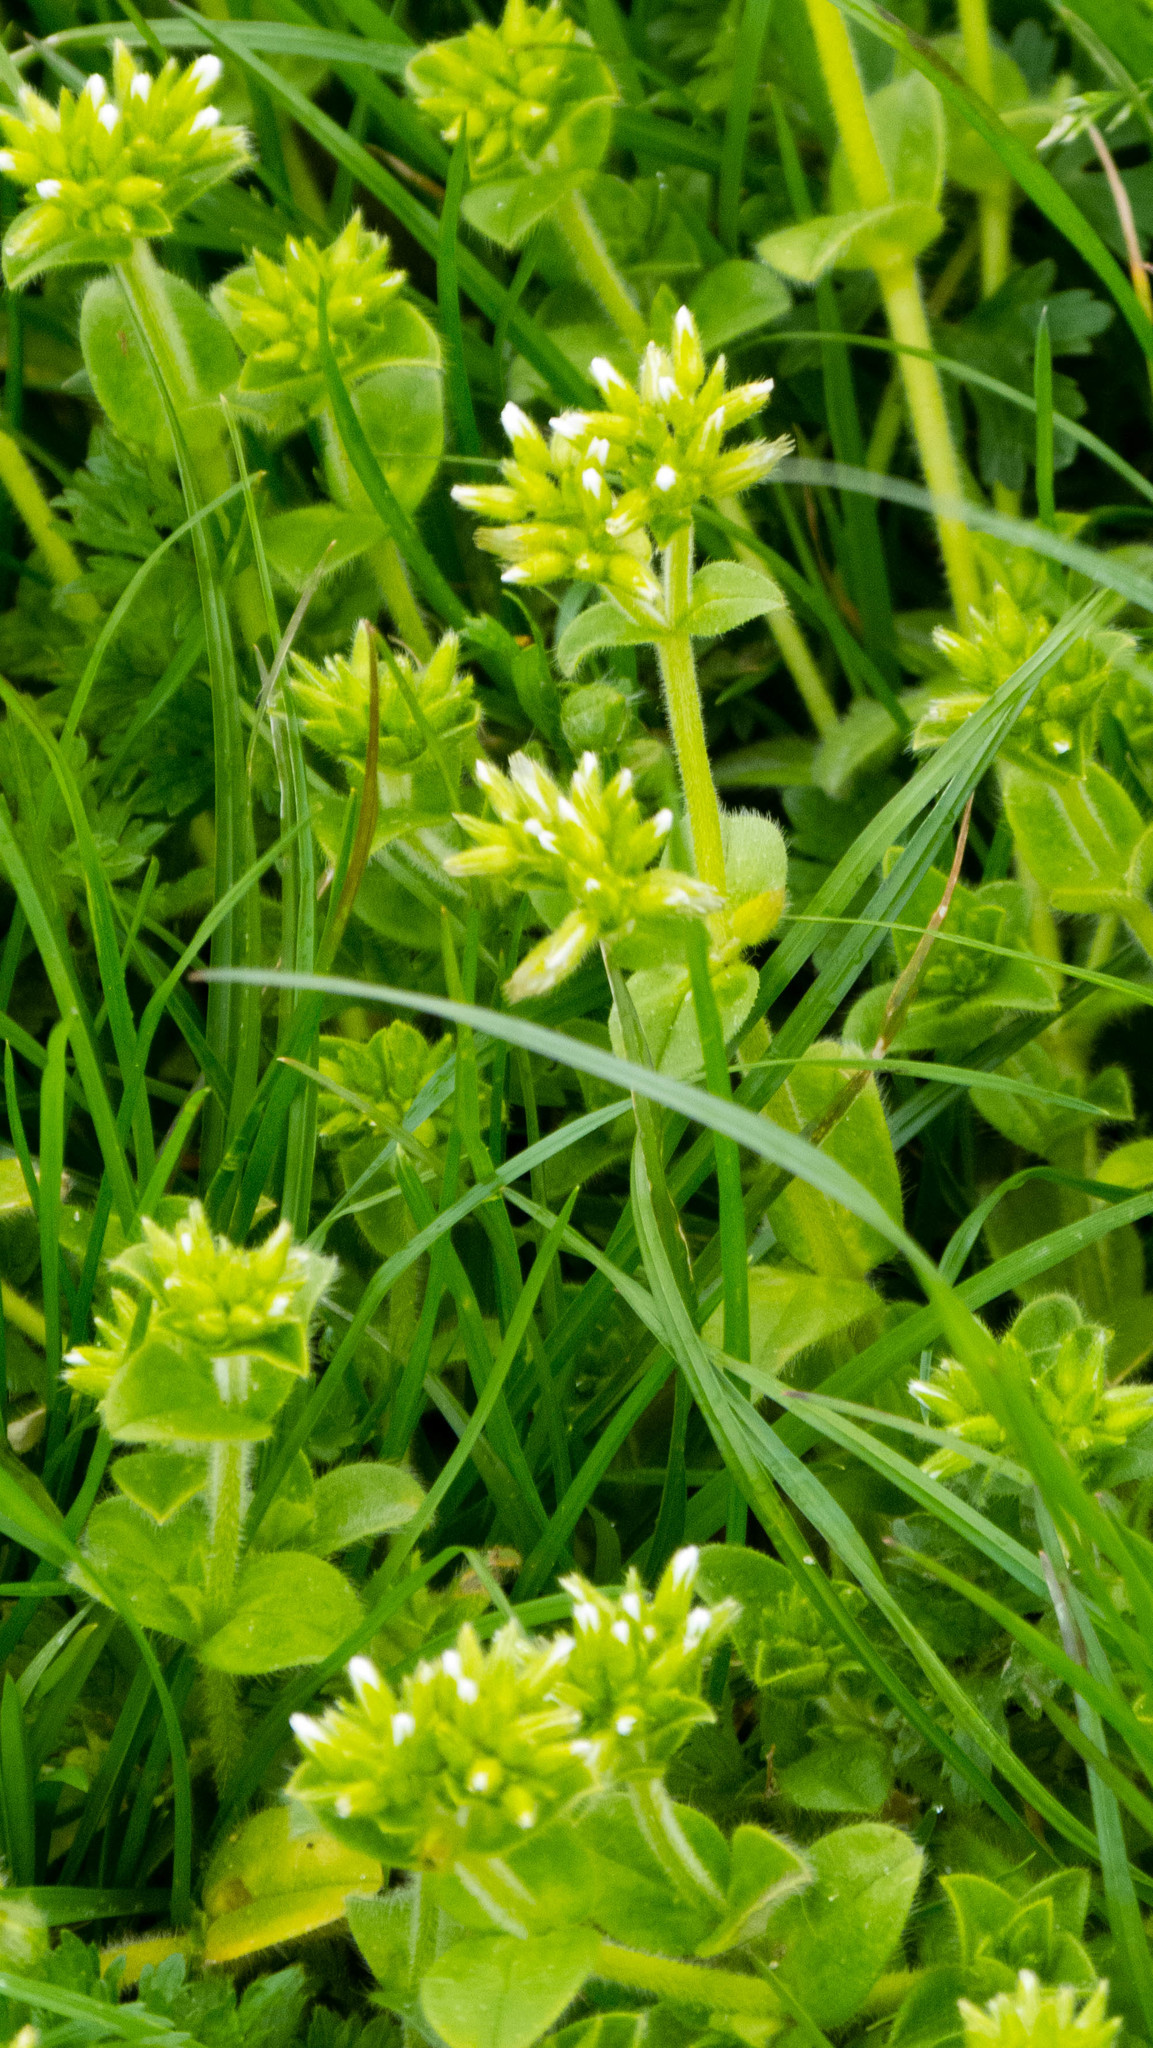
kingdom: Plantae
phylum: Tracheophyta
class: Magnoliopsida
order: Caryophyllales
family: Caryophyllaceae
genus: Cerastium
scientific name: Cerastium glomeratum
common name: Sticky chickweed
